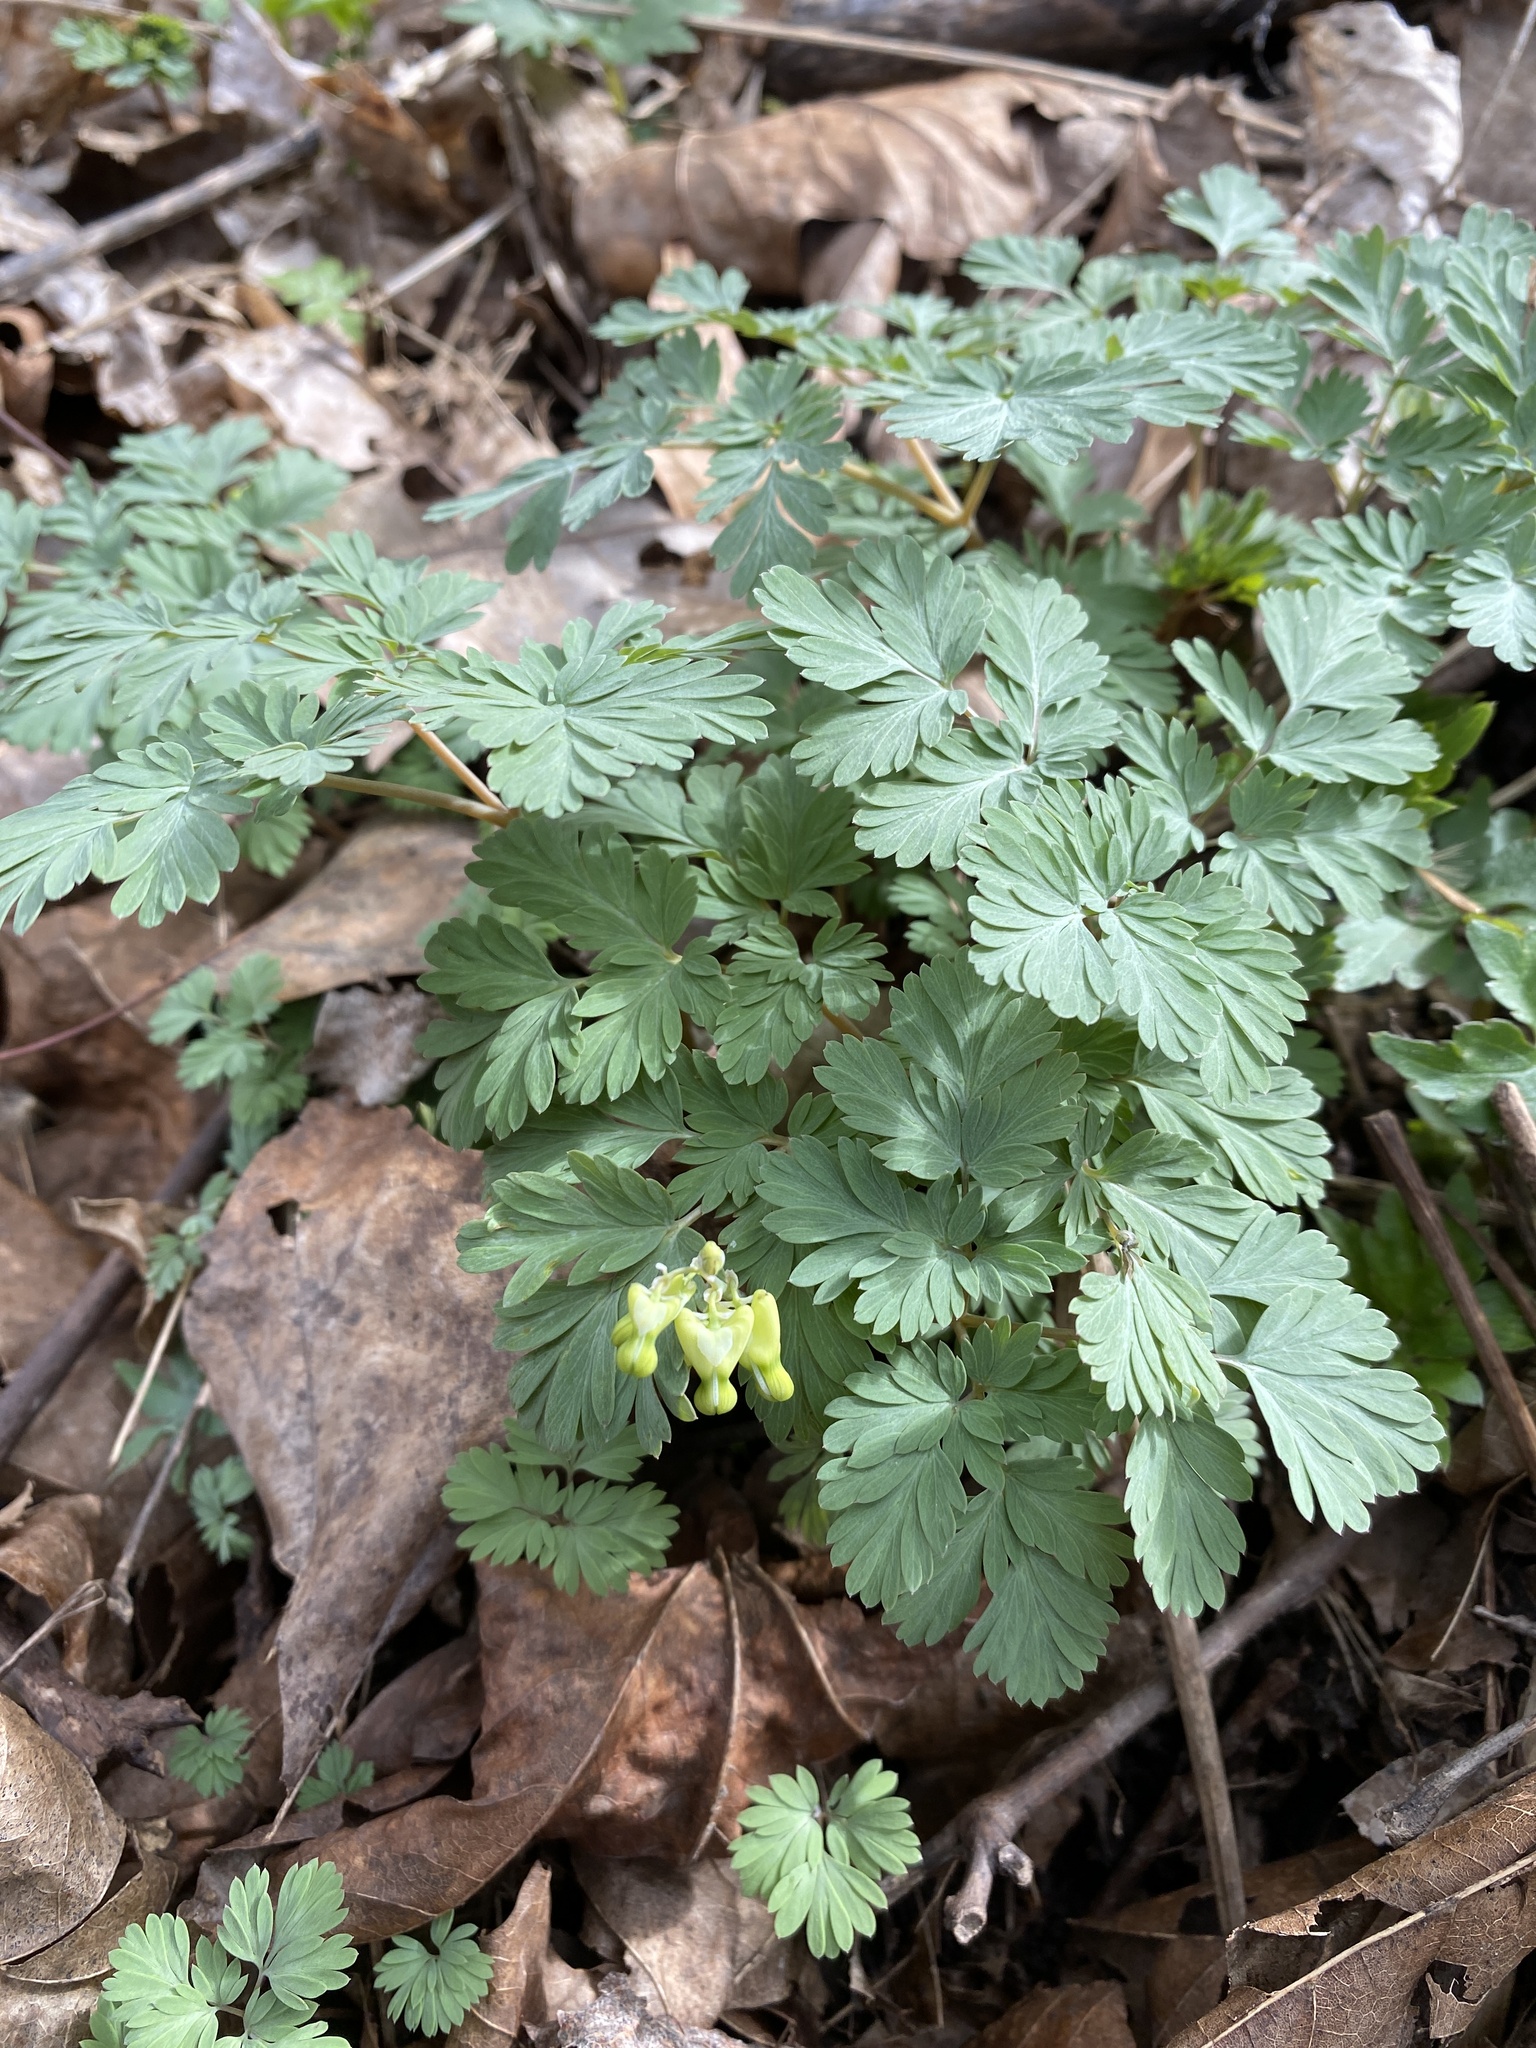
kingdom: Plantae
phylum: Tracheophyta
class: Magnoliopsida
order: Ranunculales
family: Papaveraceae
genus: Dicentra
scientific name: Dicentra cucullaria
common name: Dutchman's breeches
